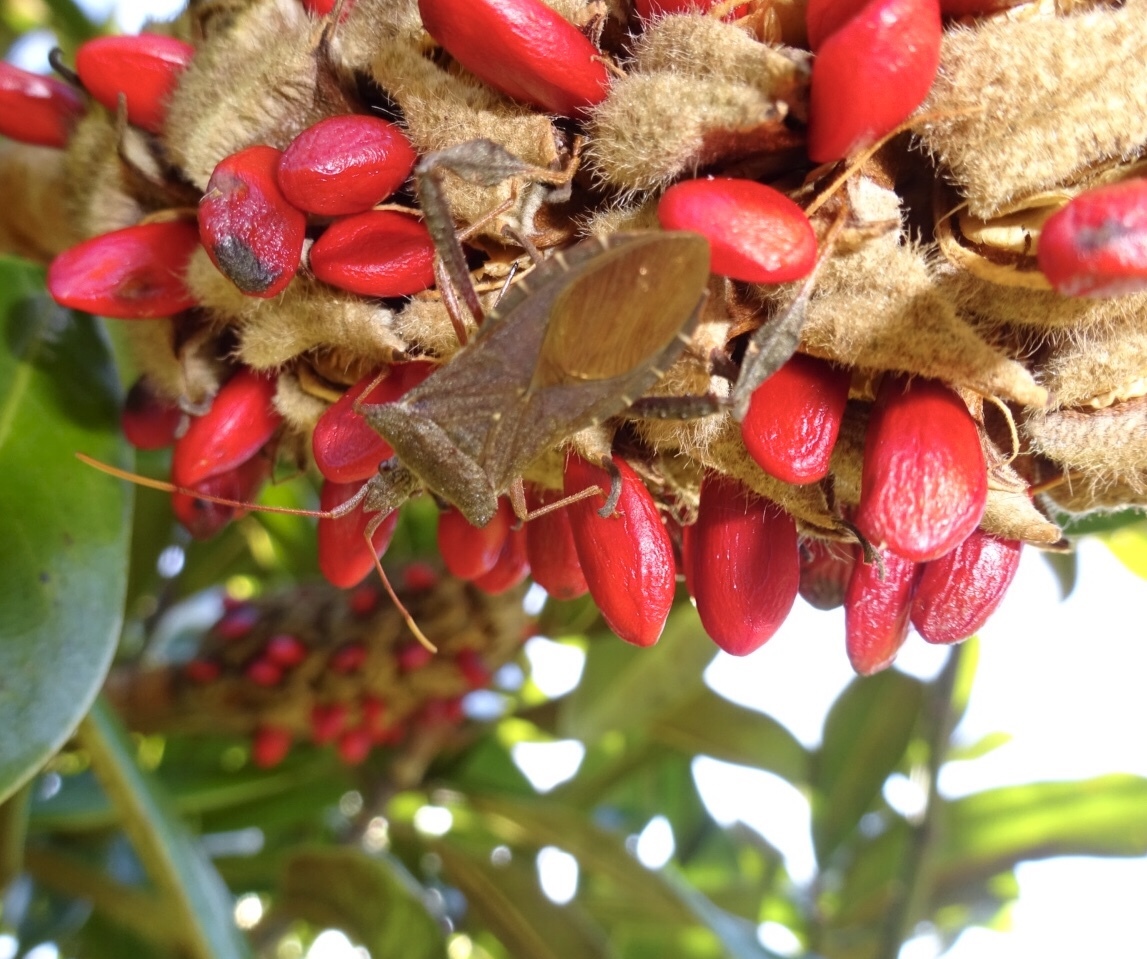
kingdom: Animalia
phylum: Arthropoda
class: Insecta
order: Hemiptera
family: Coreidae
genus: Leptoglossus
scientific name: Leptoglossus fulvicornis
